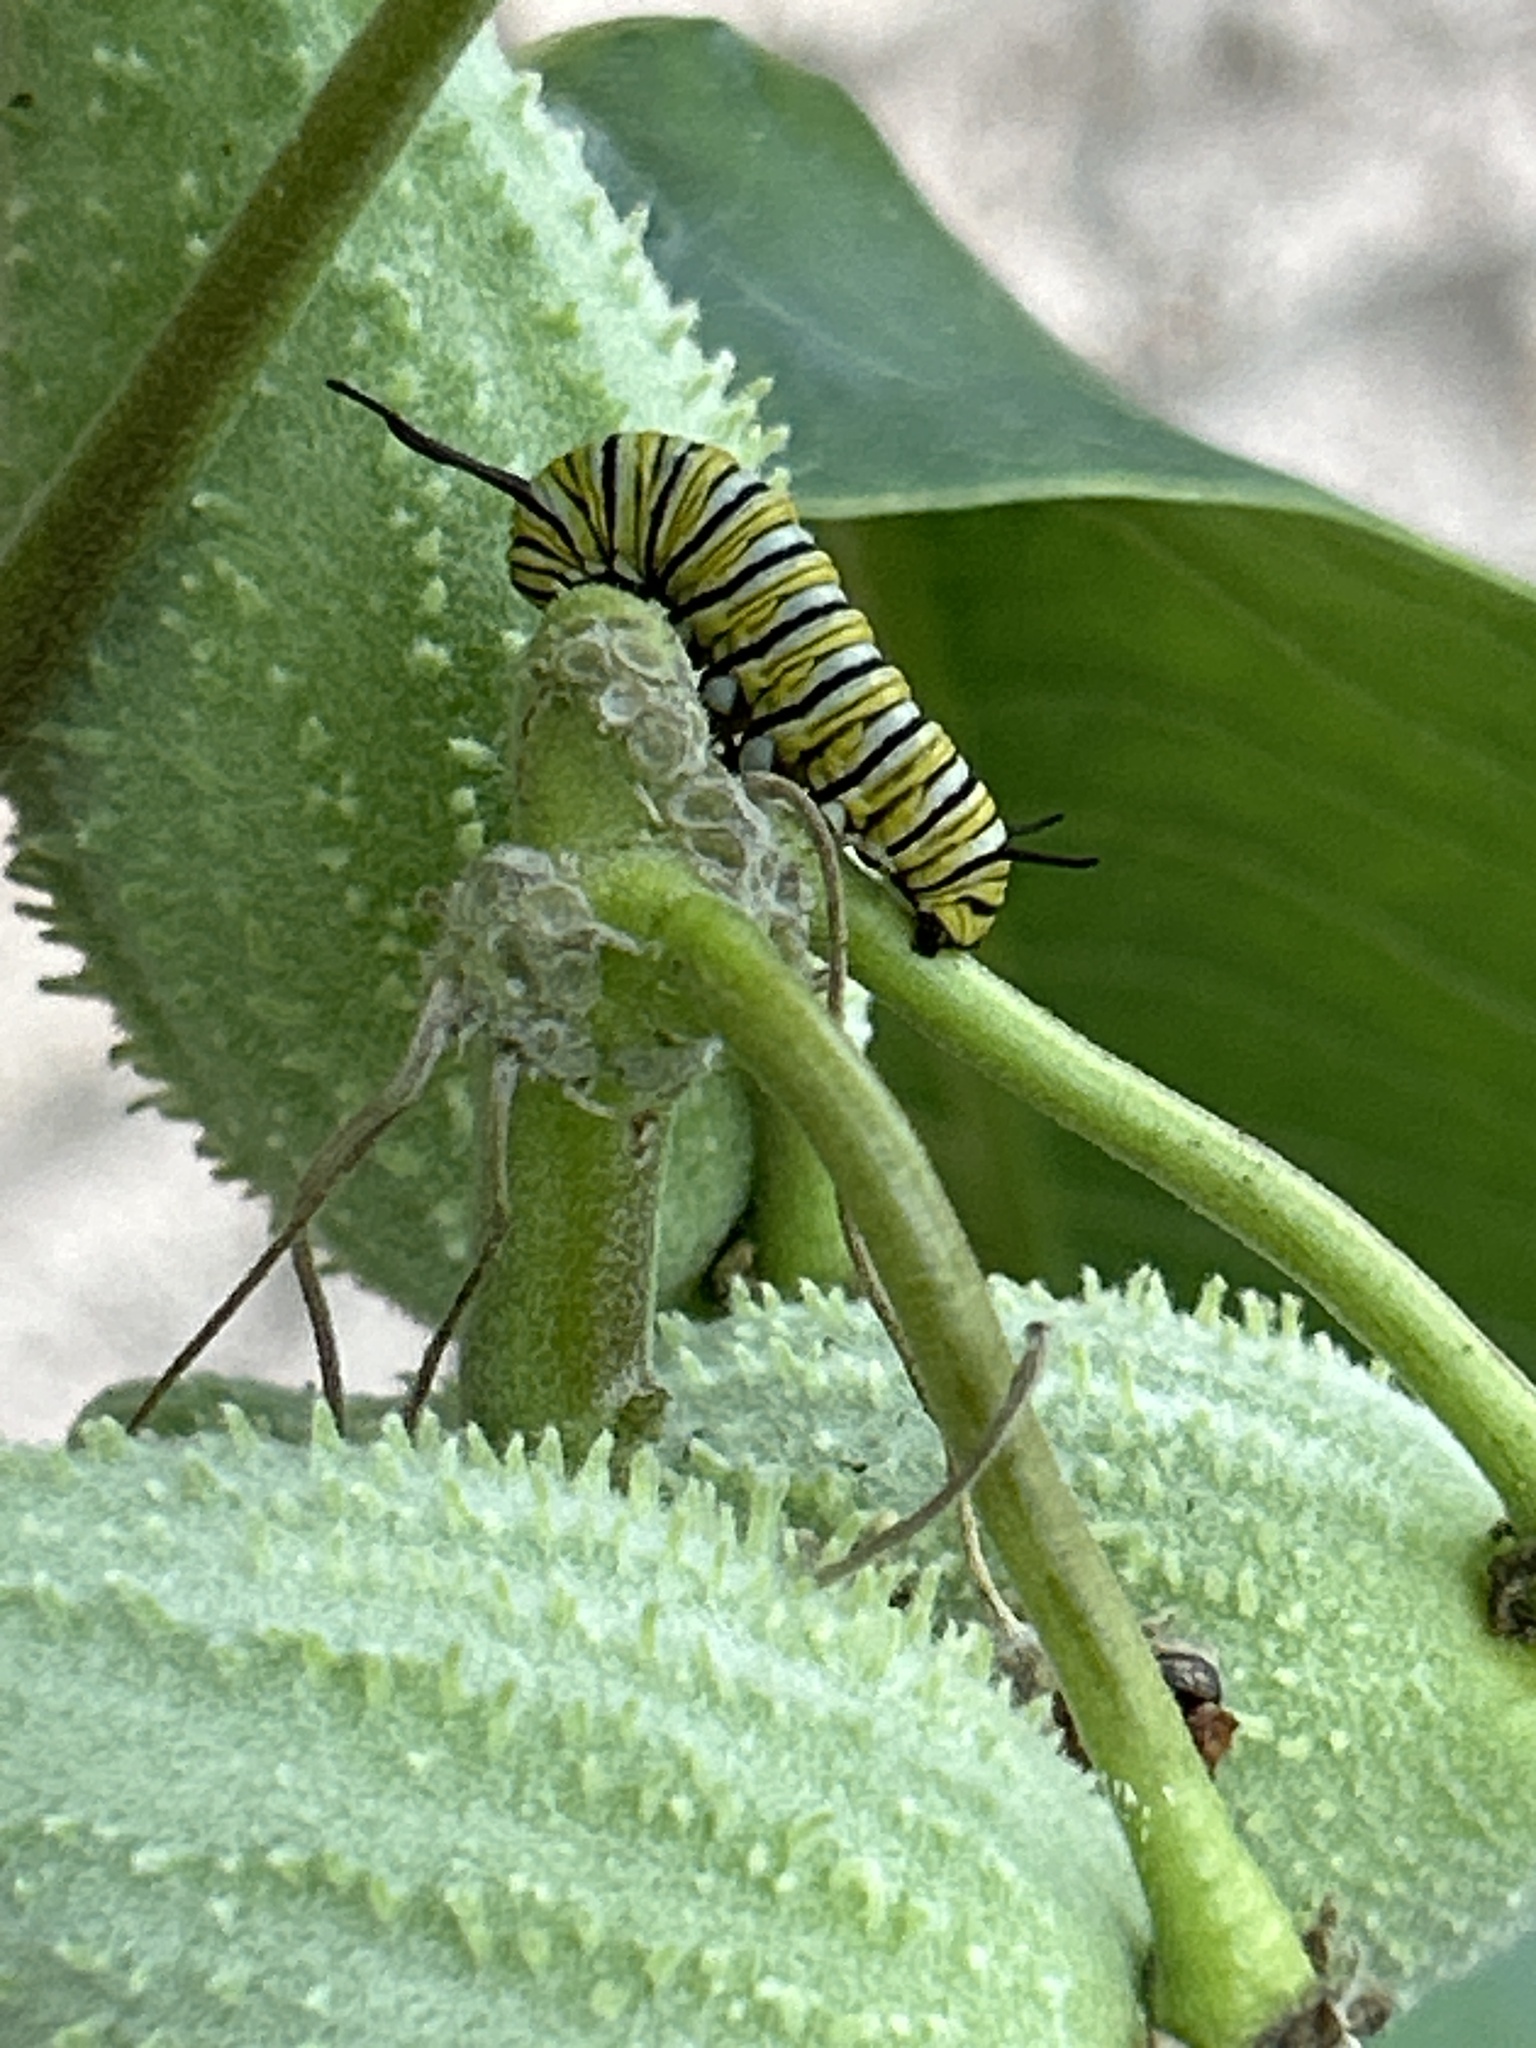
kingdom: Animalia
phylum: Arthropoda
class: Insecta
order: Lepidoptera
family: Nymphalidae
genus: Danaus
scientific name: Danaus plexippus
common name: Monarch
